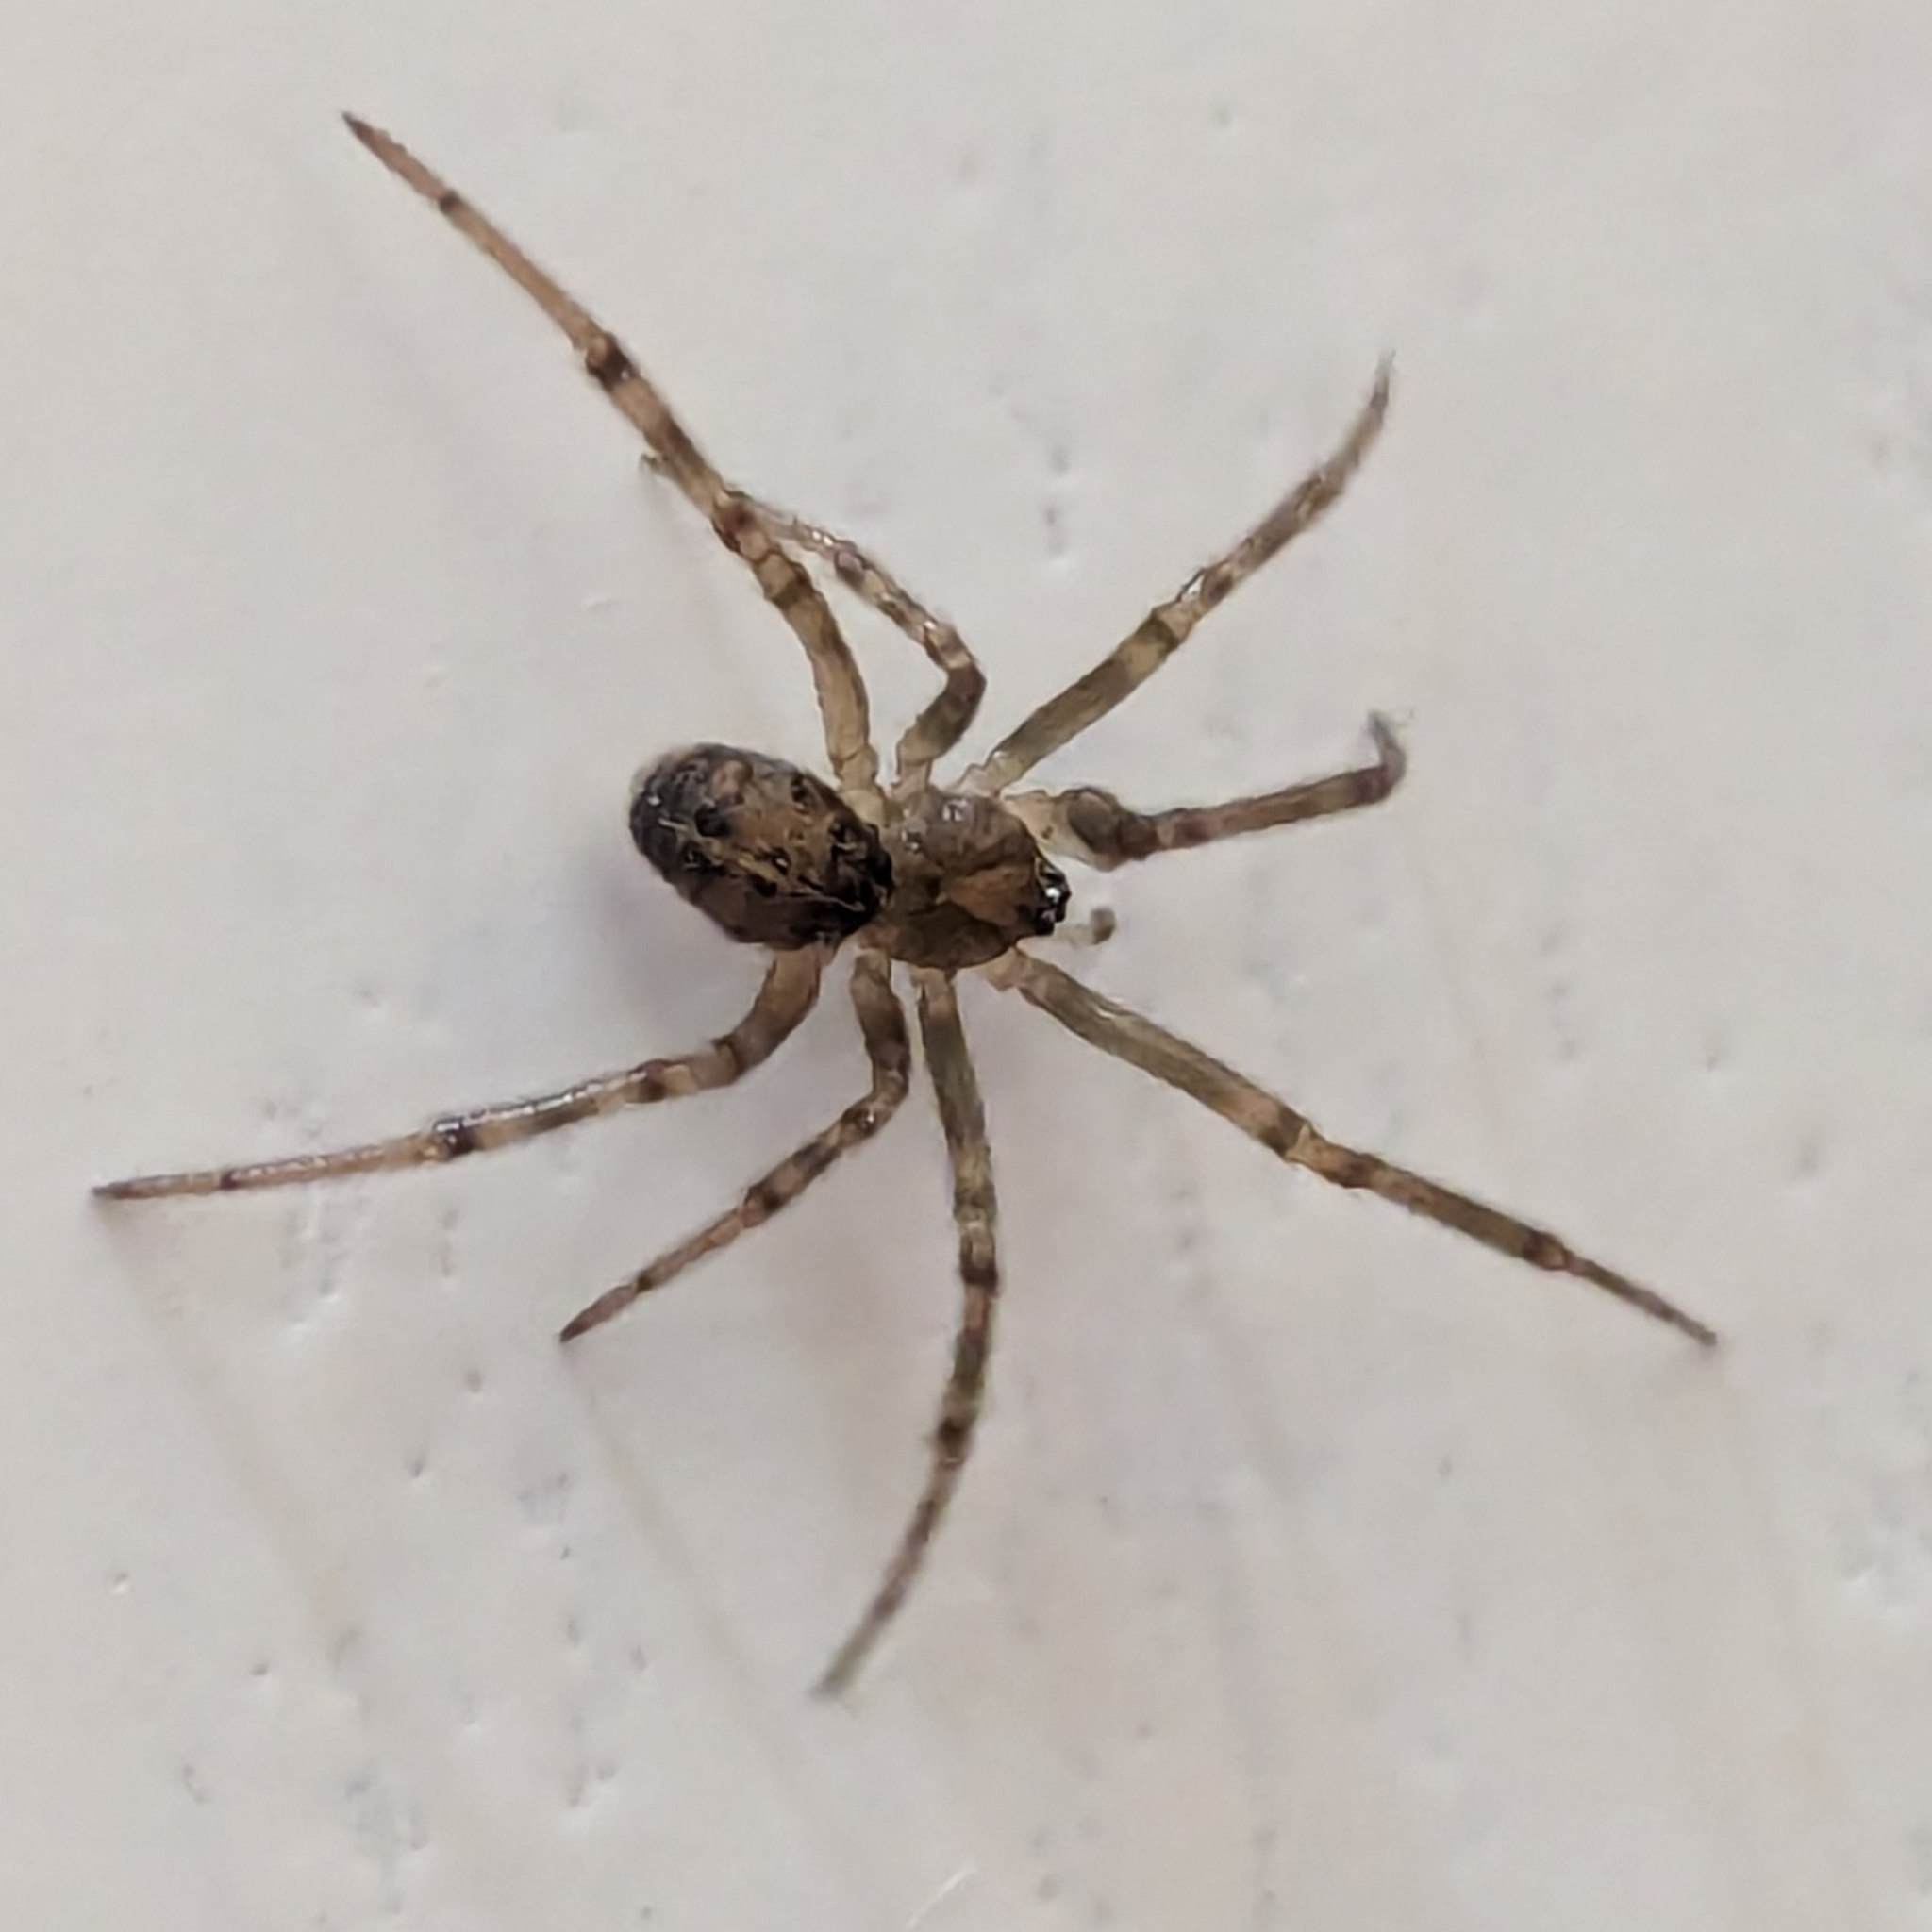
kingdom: Animalia
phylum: Arthropoda
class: Arachnida
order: Araneae
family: Theridiidae
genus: Steatoda
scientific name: Steatoda castanea
